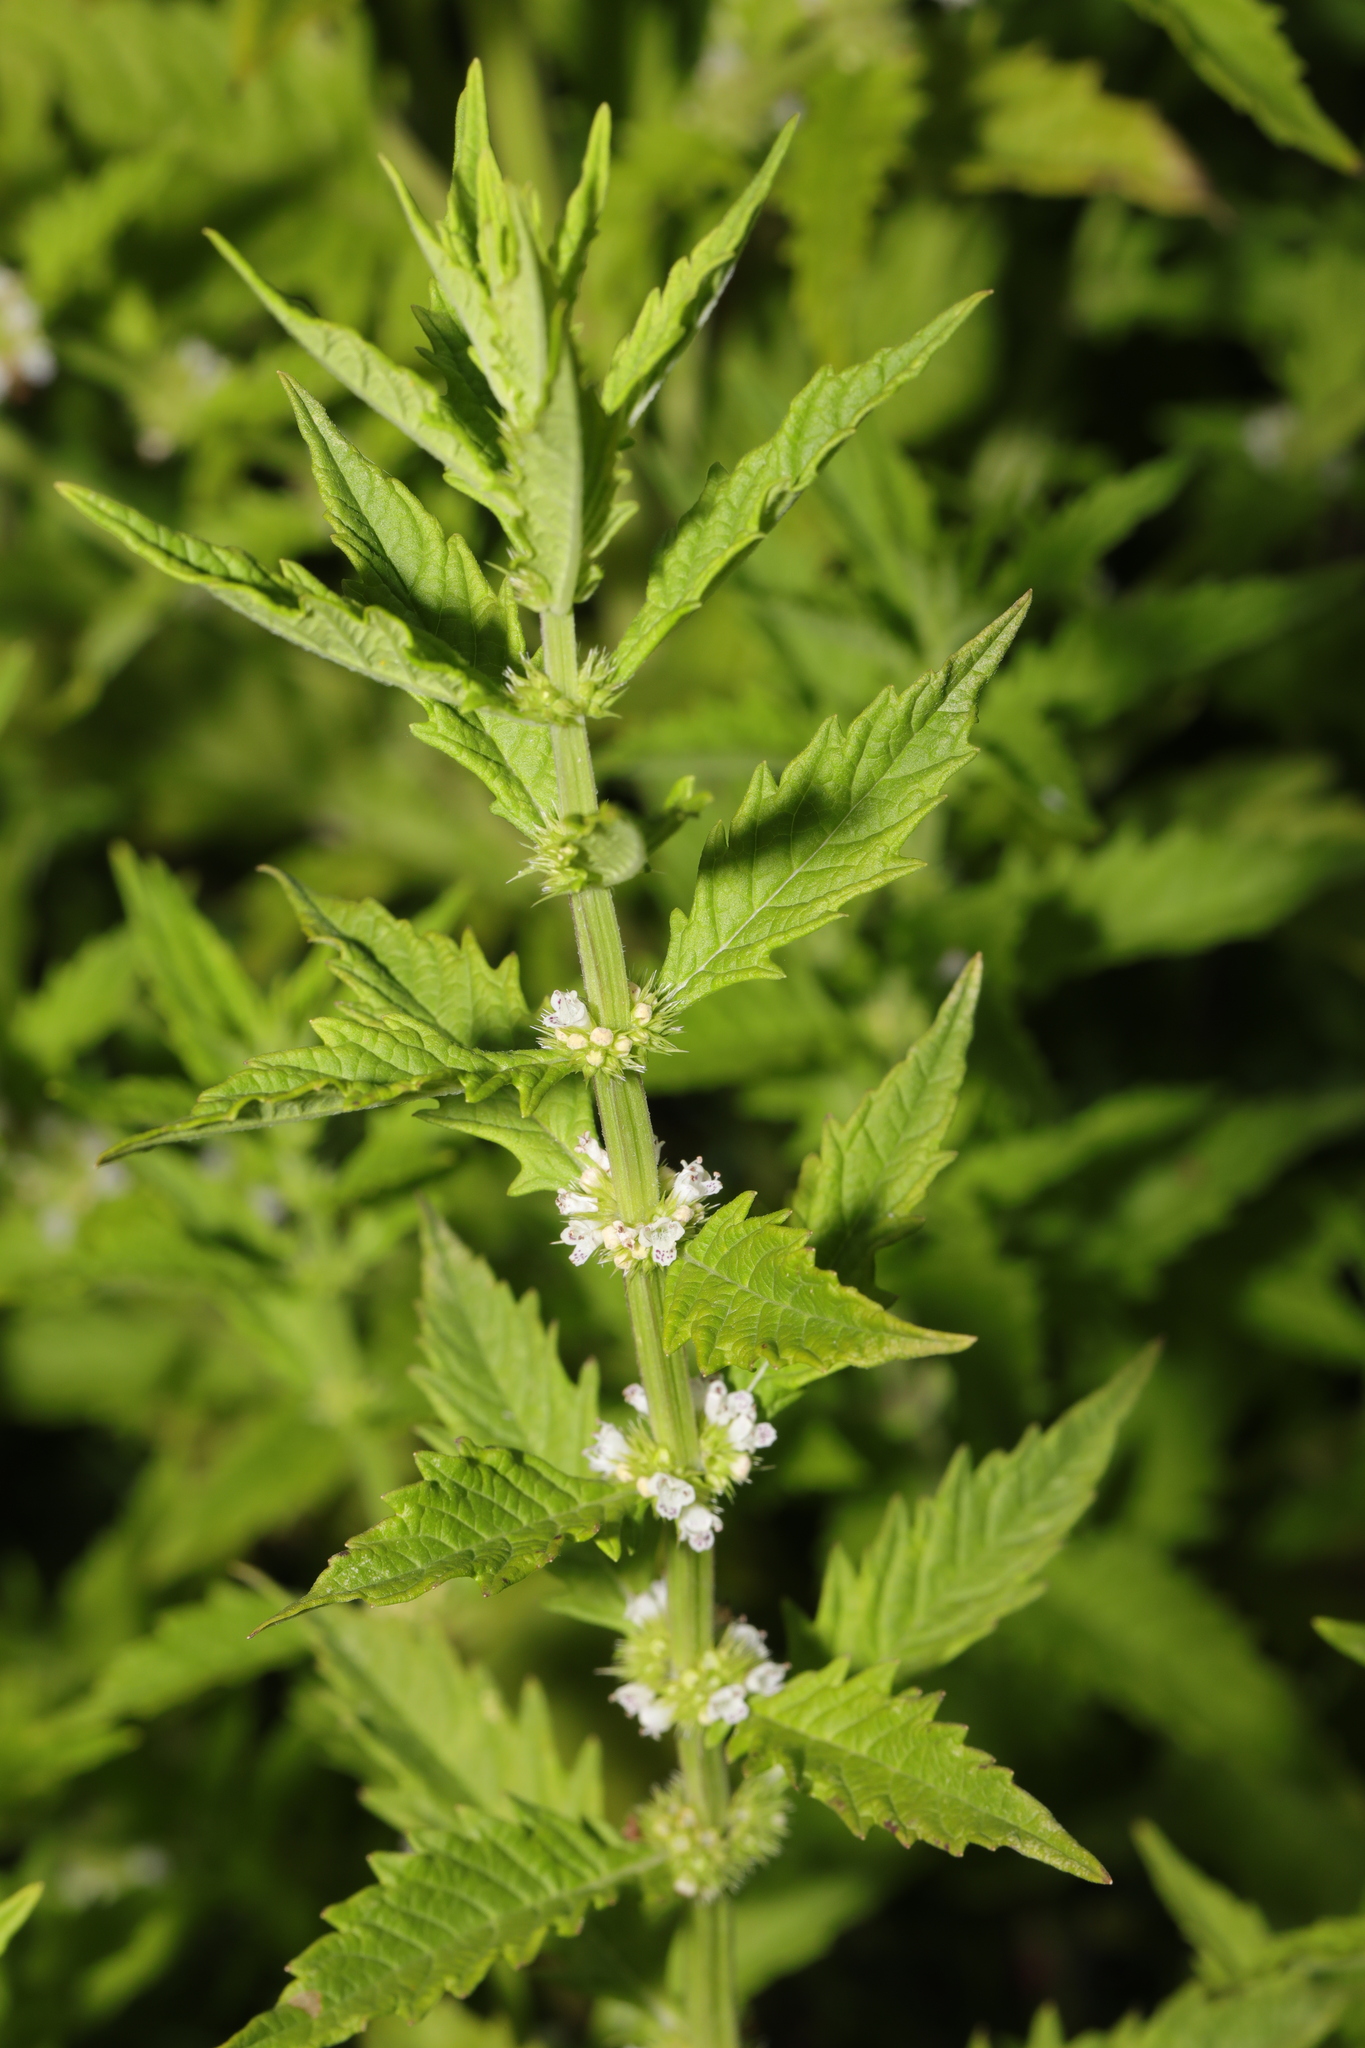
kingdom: Plantae
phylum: Tracheophyta
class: Magnoliopsida
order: Lamiales
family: Lamiaceae
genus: Lycopus
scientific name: Lycopus europaeus
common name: European bugleweed
